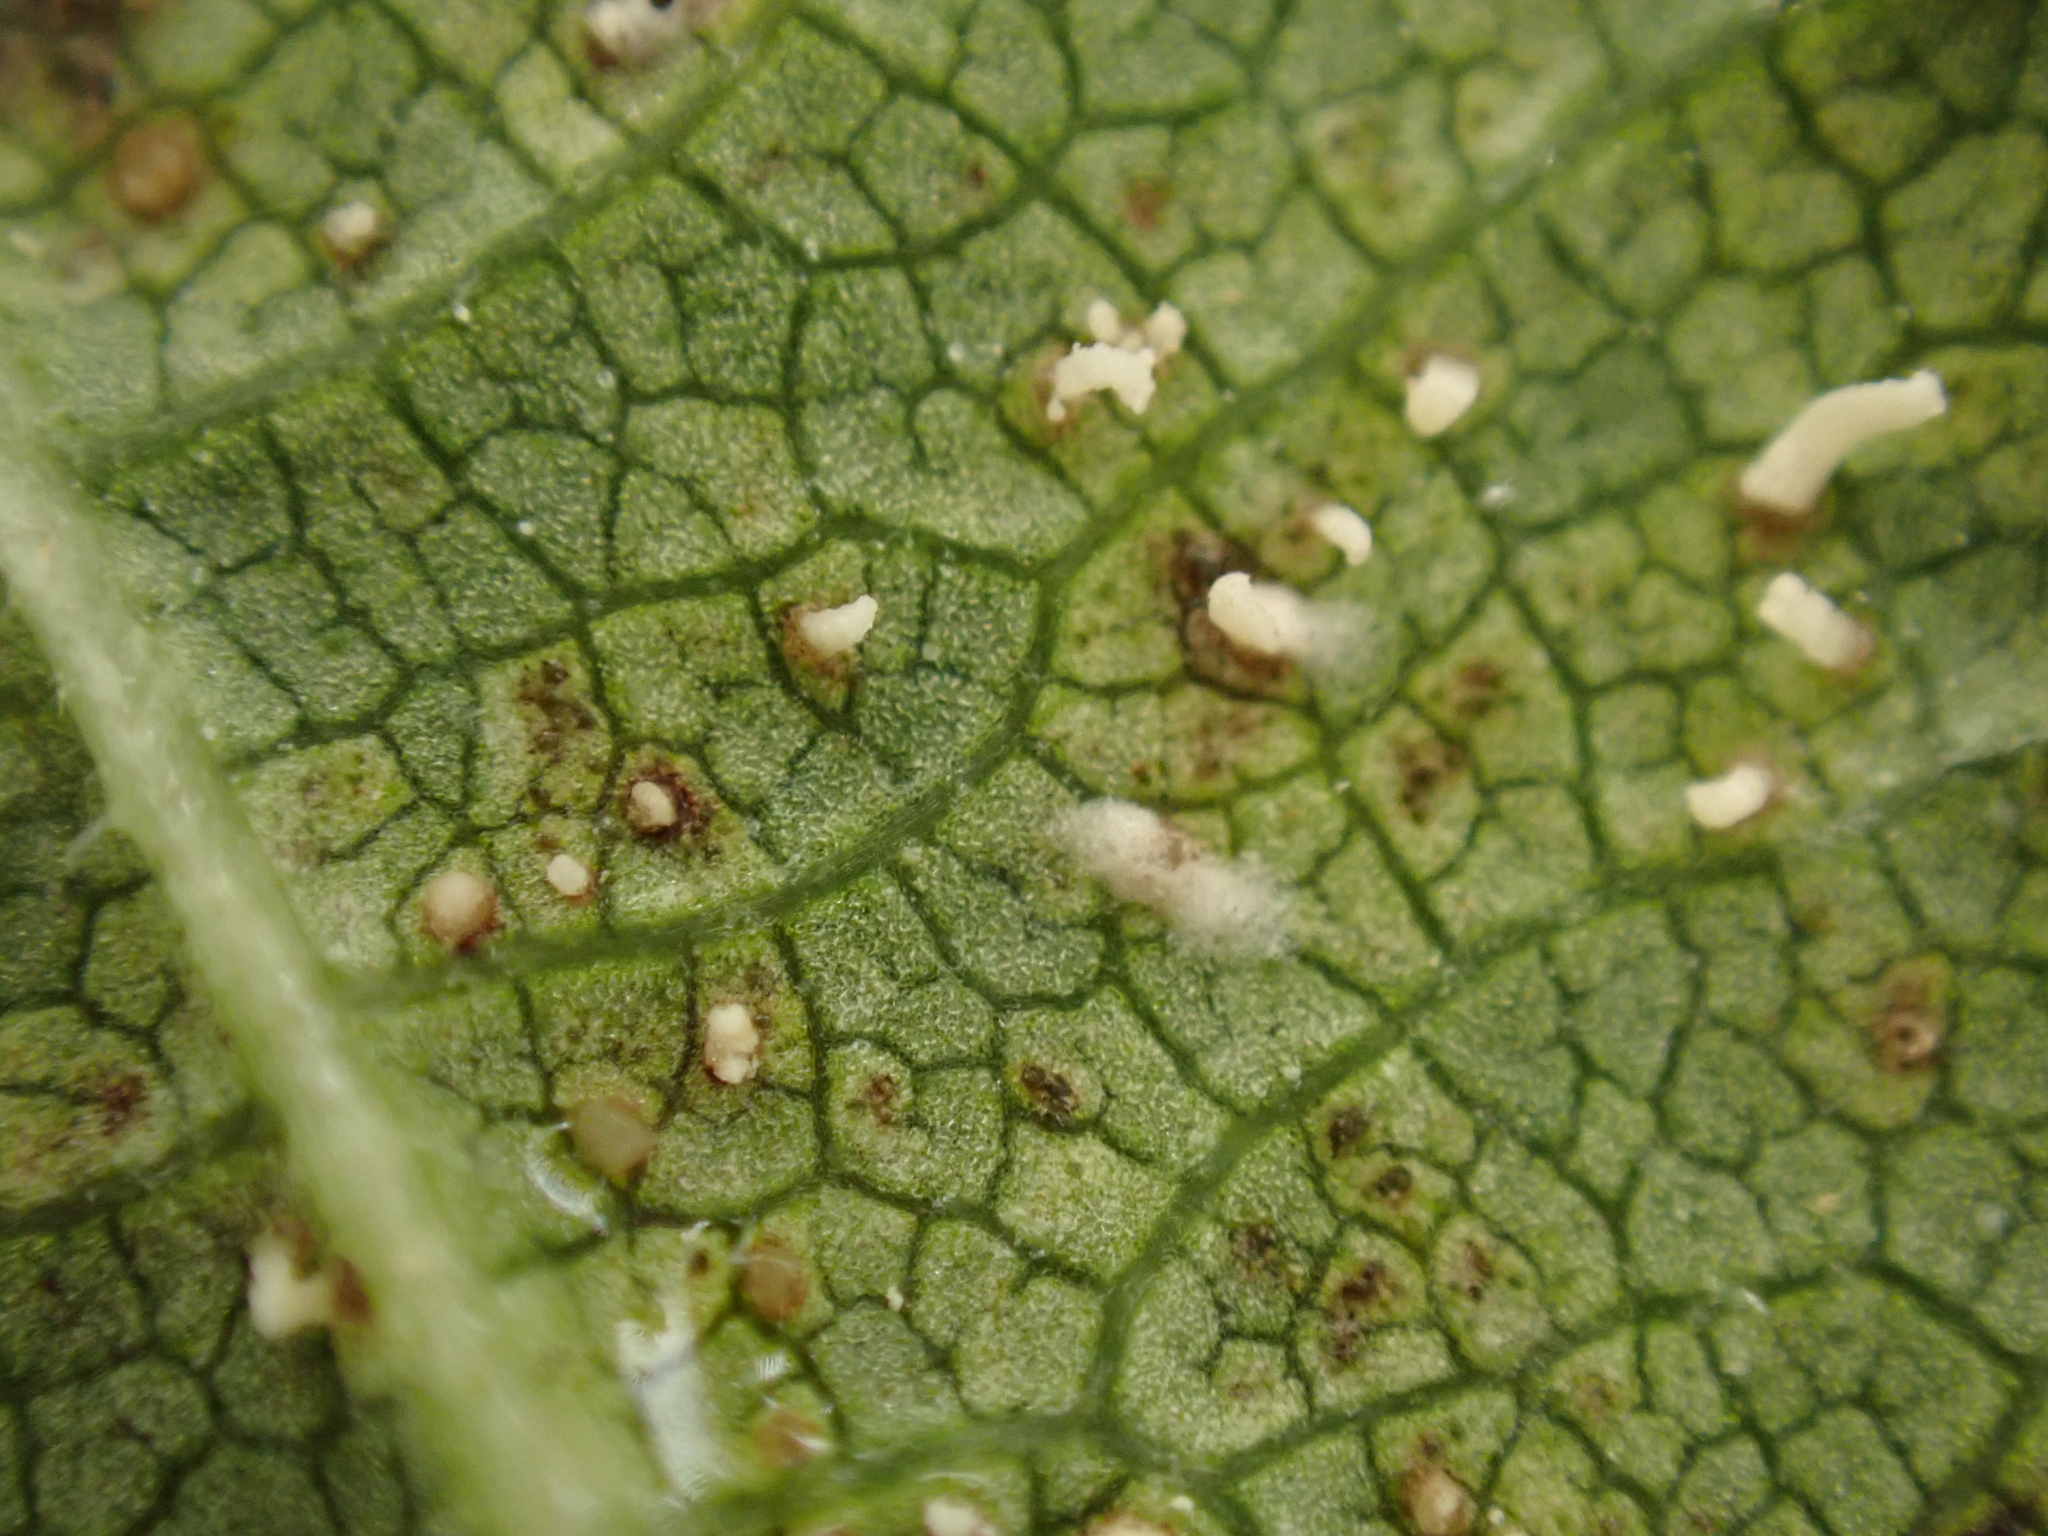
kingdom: Fungi
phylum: Ascomycota
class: Dothideomycetes
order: Mycosphaerellales
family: Mycosphaerellaceae
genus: Mycosphaerella
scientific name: Mycosphaerella ulmi
